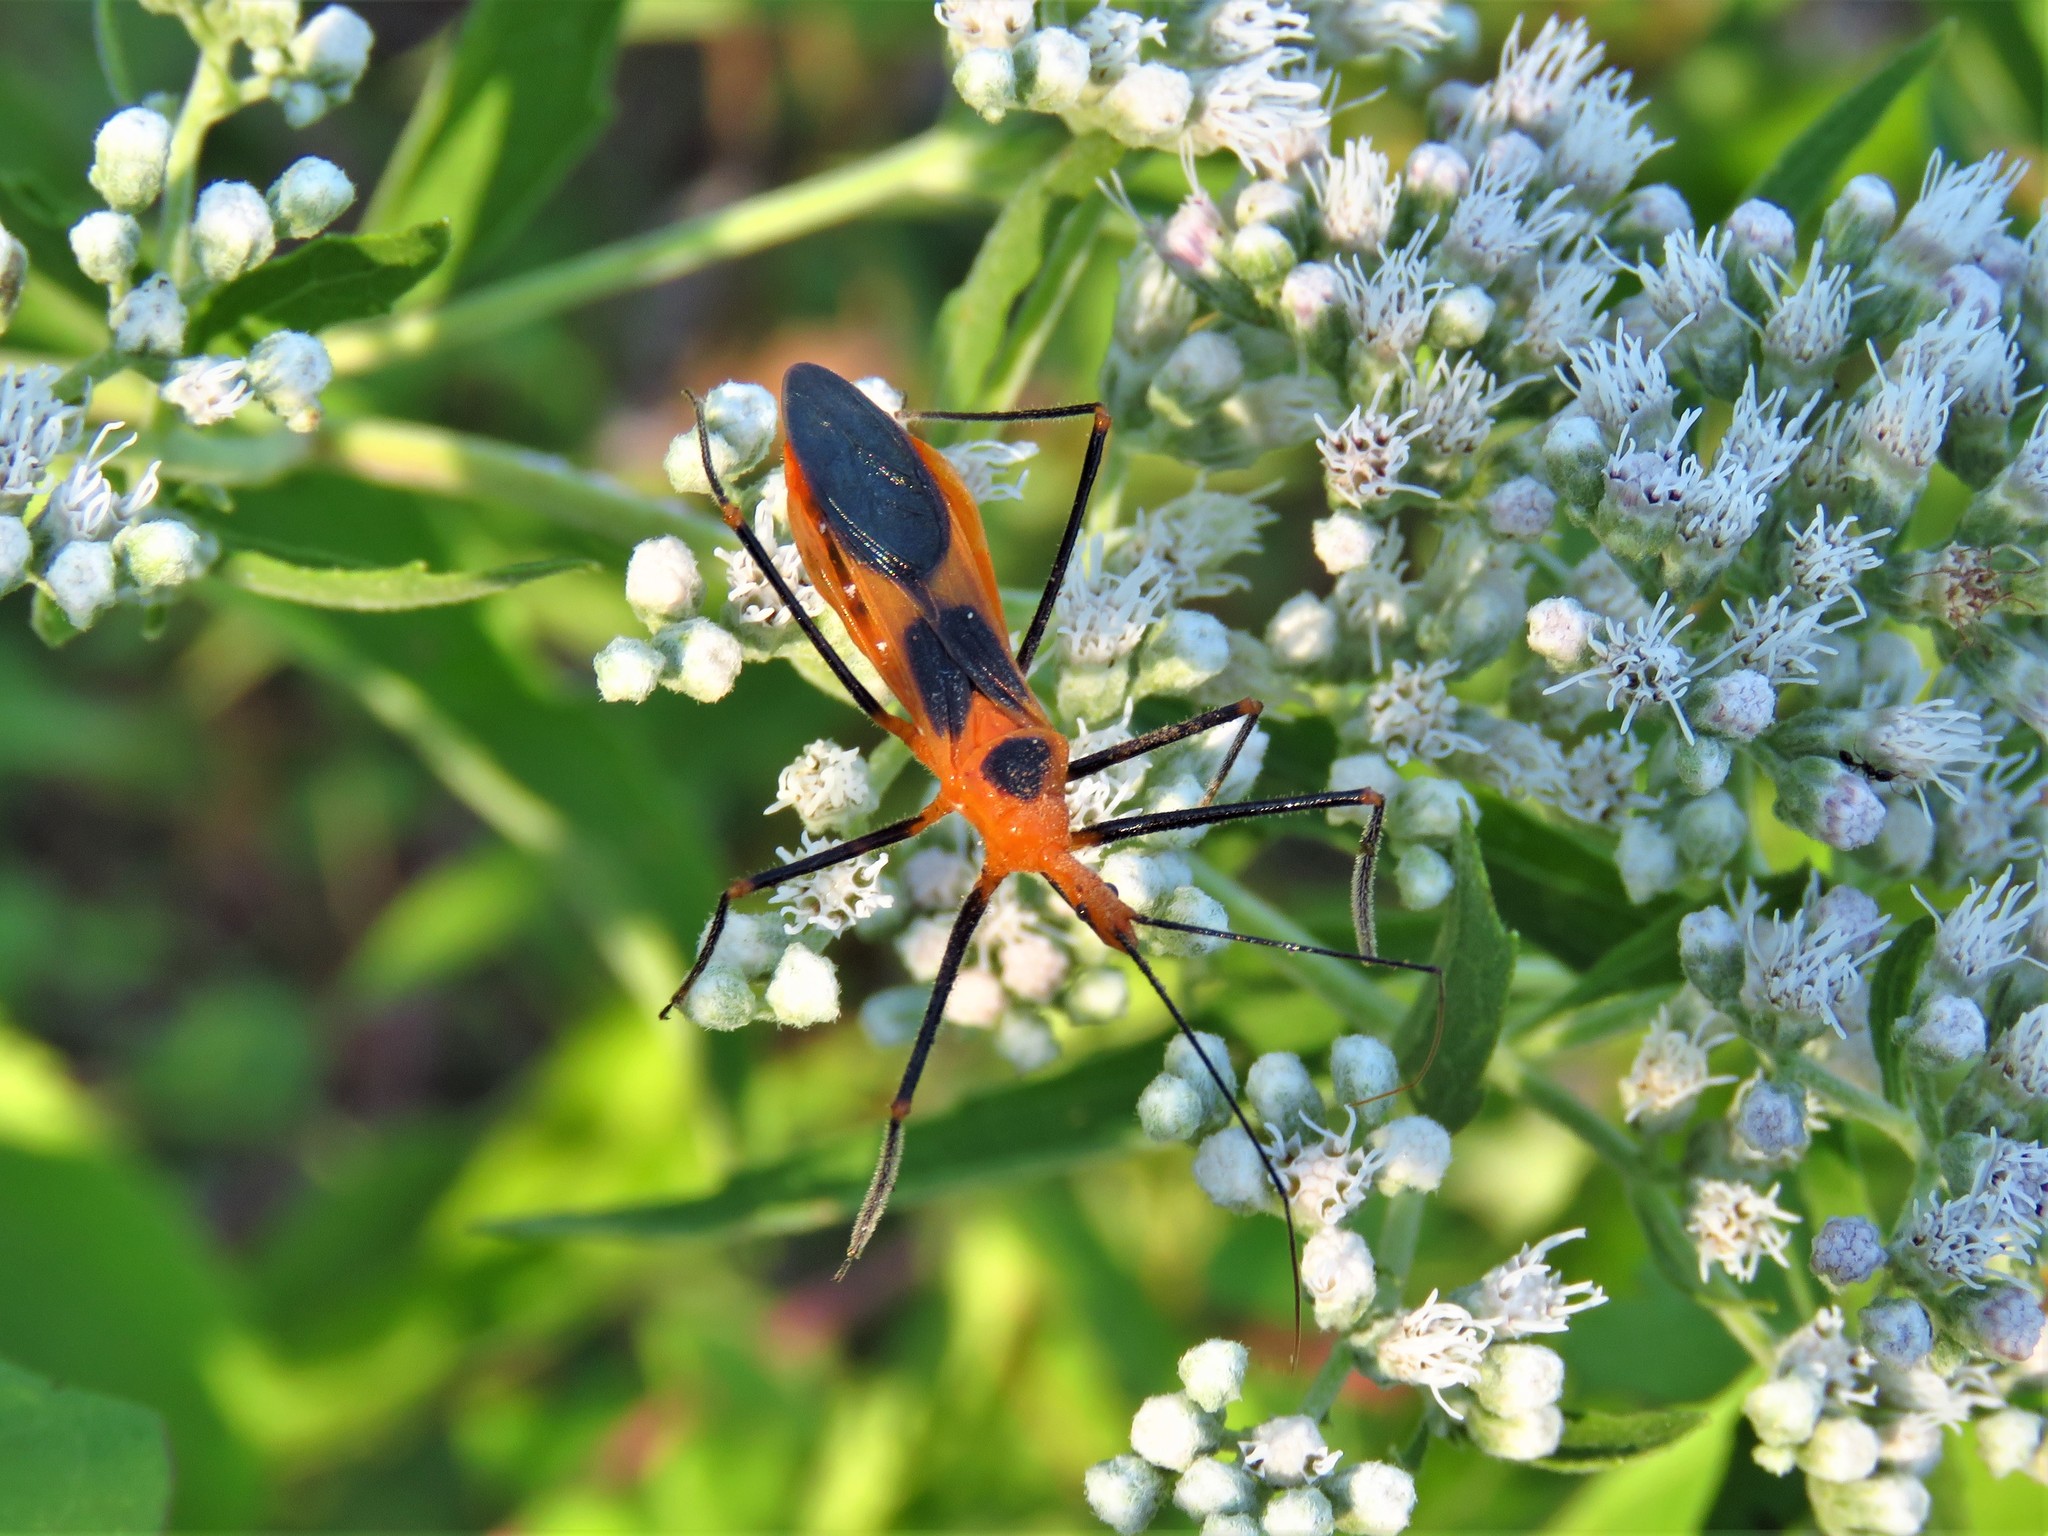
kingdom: Animalia
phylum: Arthropoda
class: Insecta
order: Hemiptera
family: Reduviidae
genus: Zelus
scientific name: Zelus longipes
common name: Milkweed assassin bug
